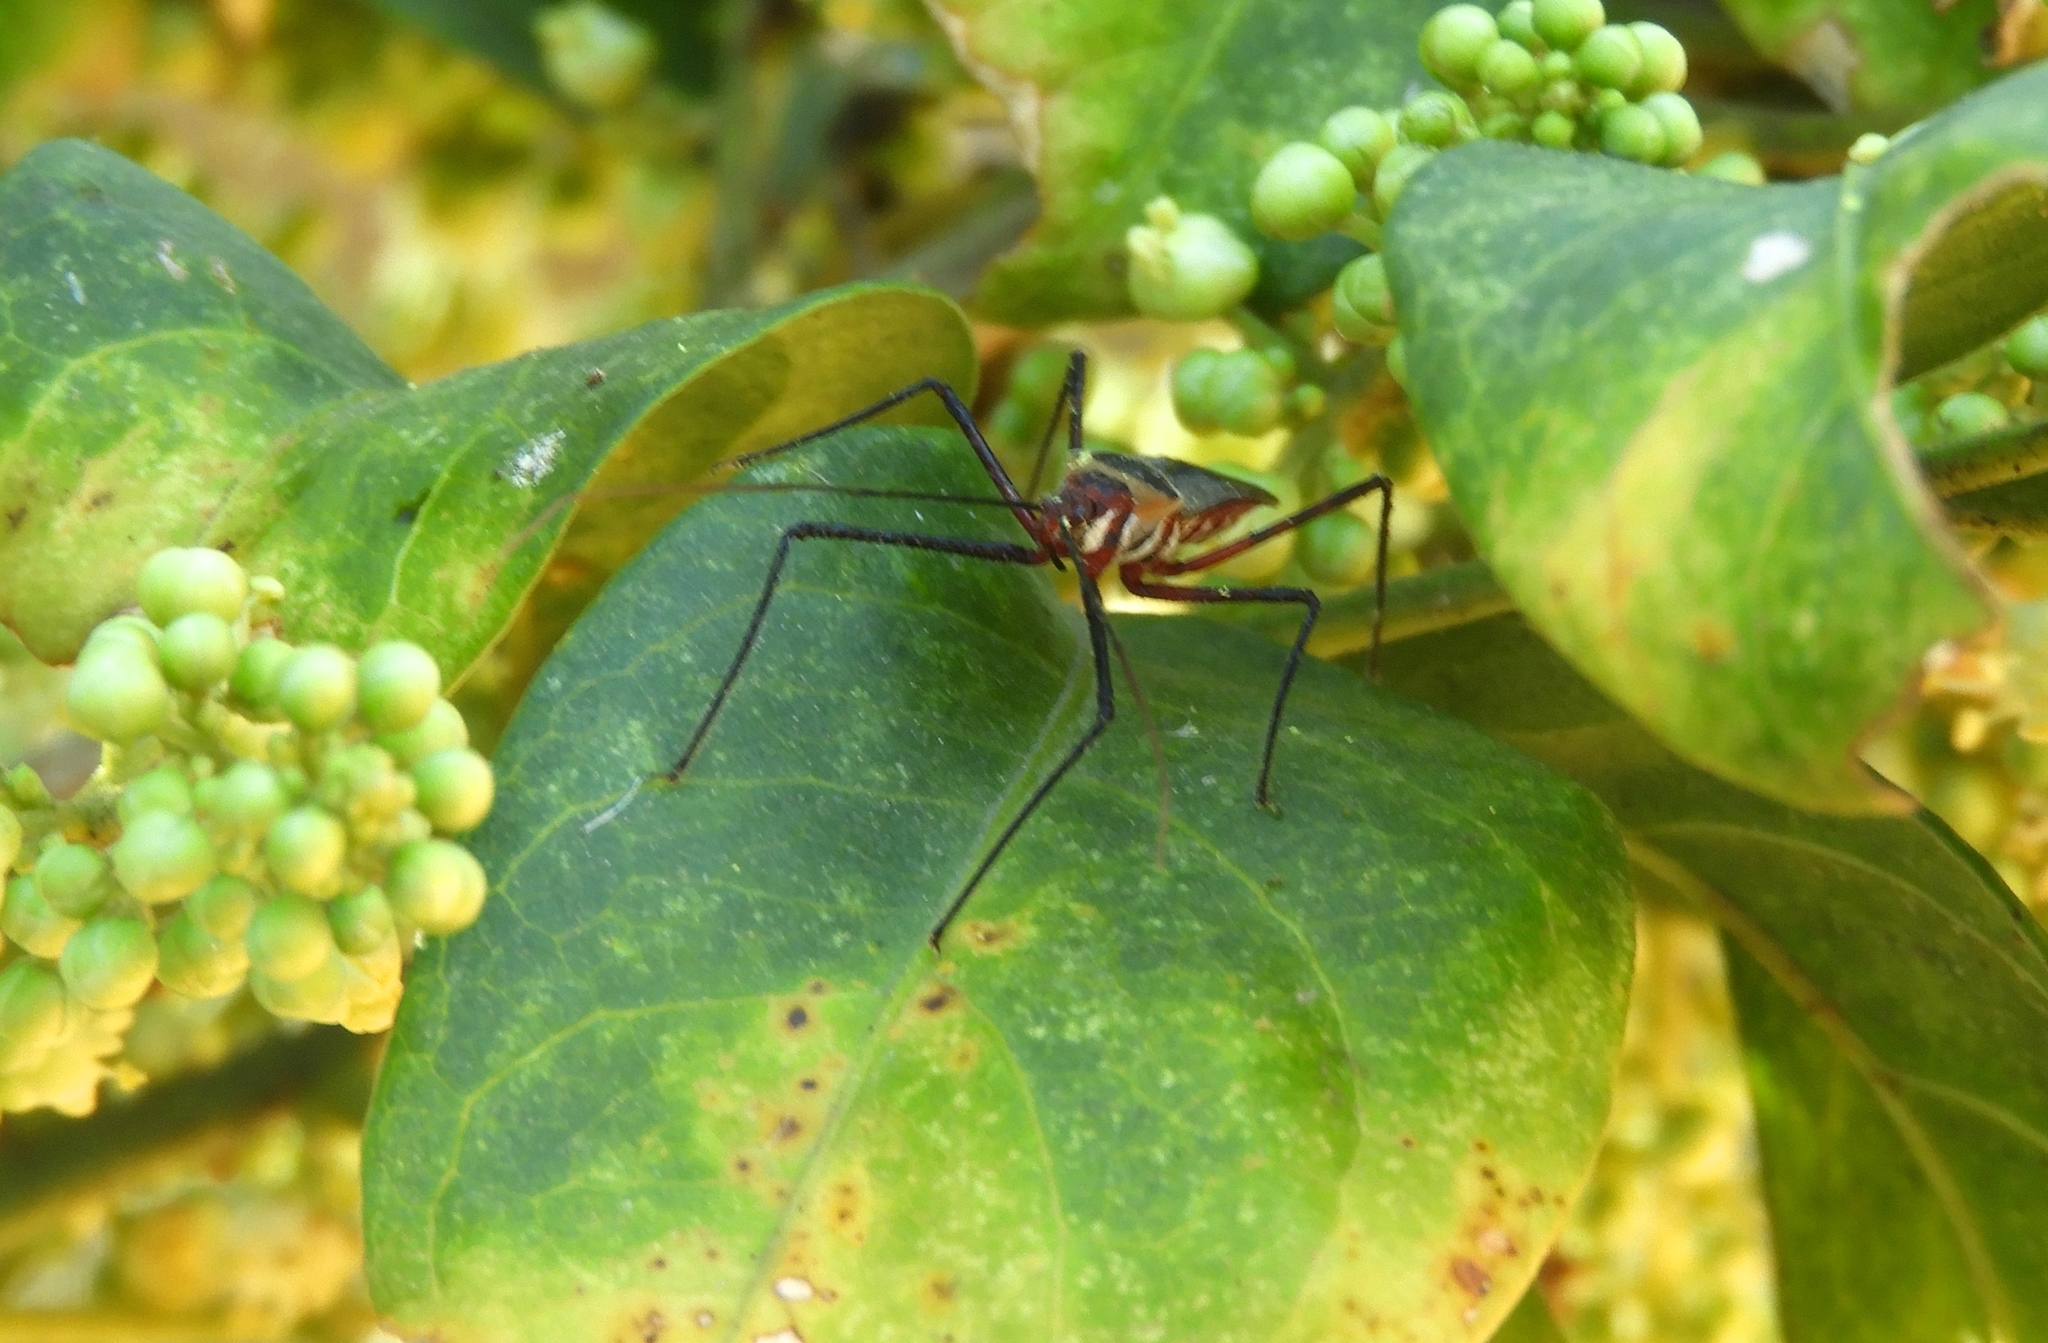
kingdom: Animalia
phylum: Arthropoda
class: Insecta
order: Hemiptera
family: Reduviidae
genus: Zelus
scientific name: Zelus grassans
